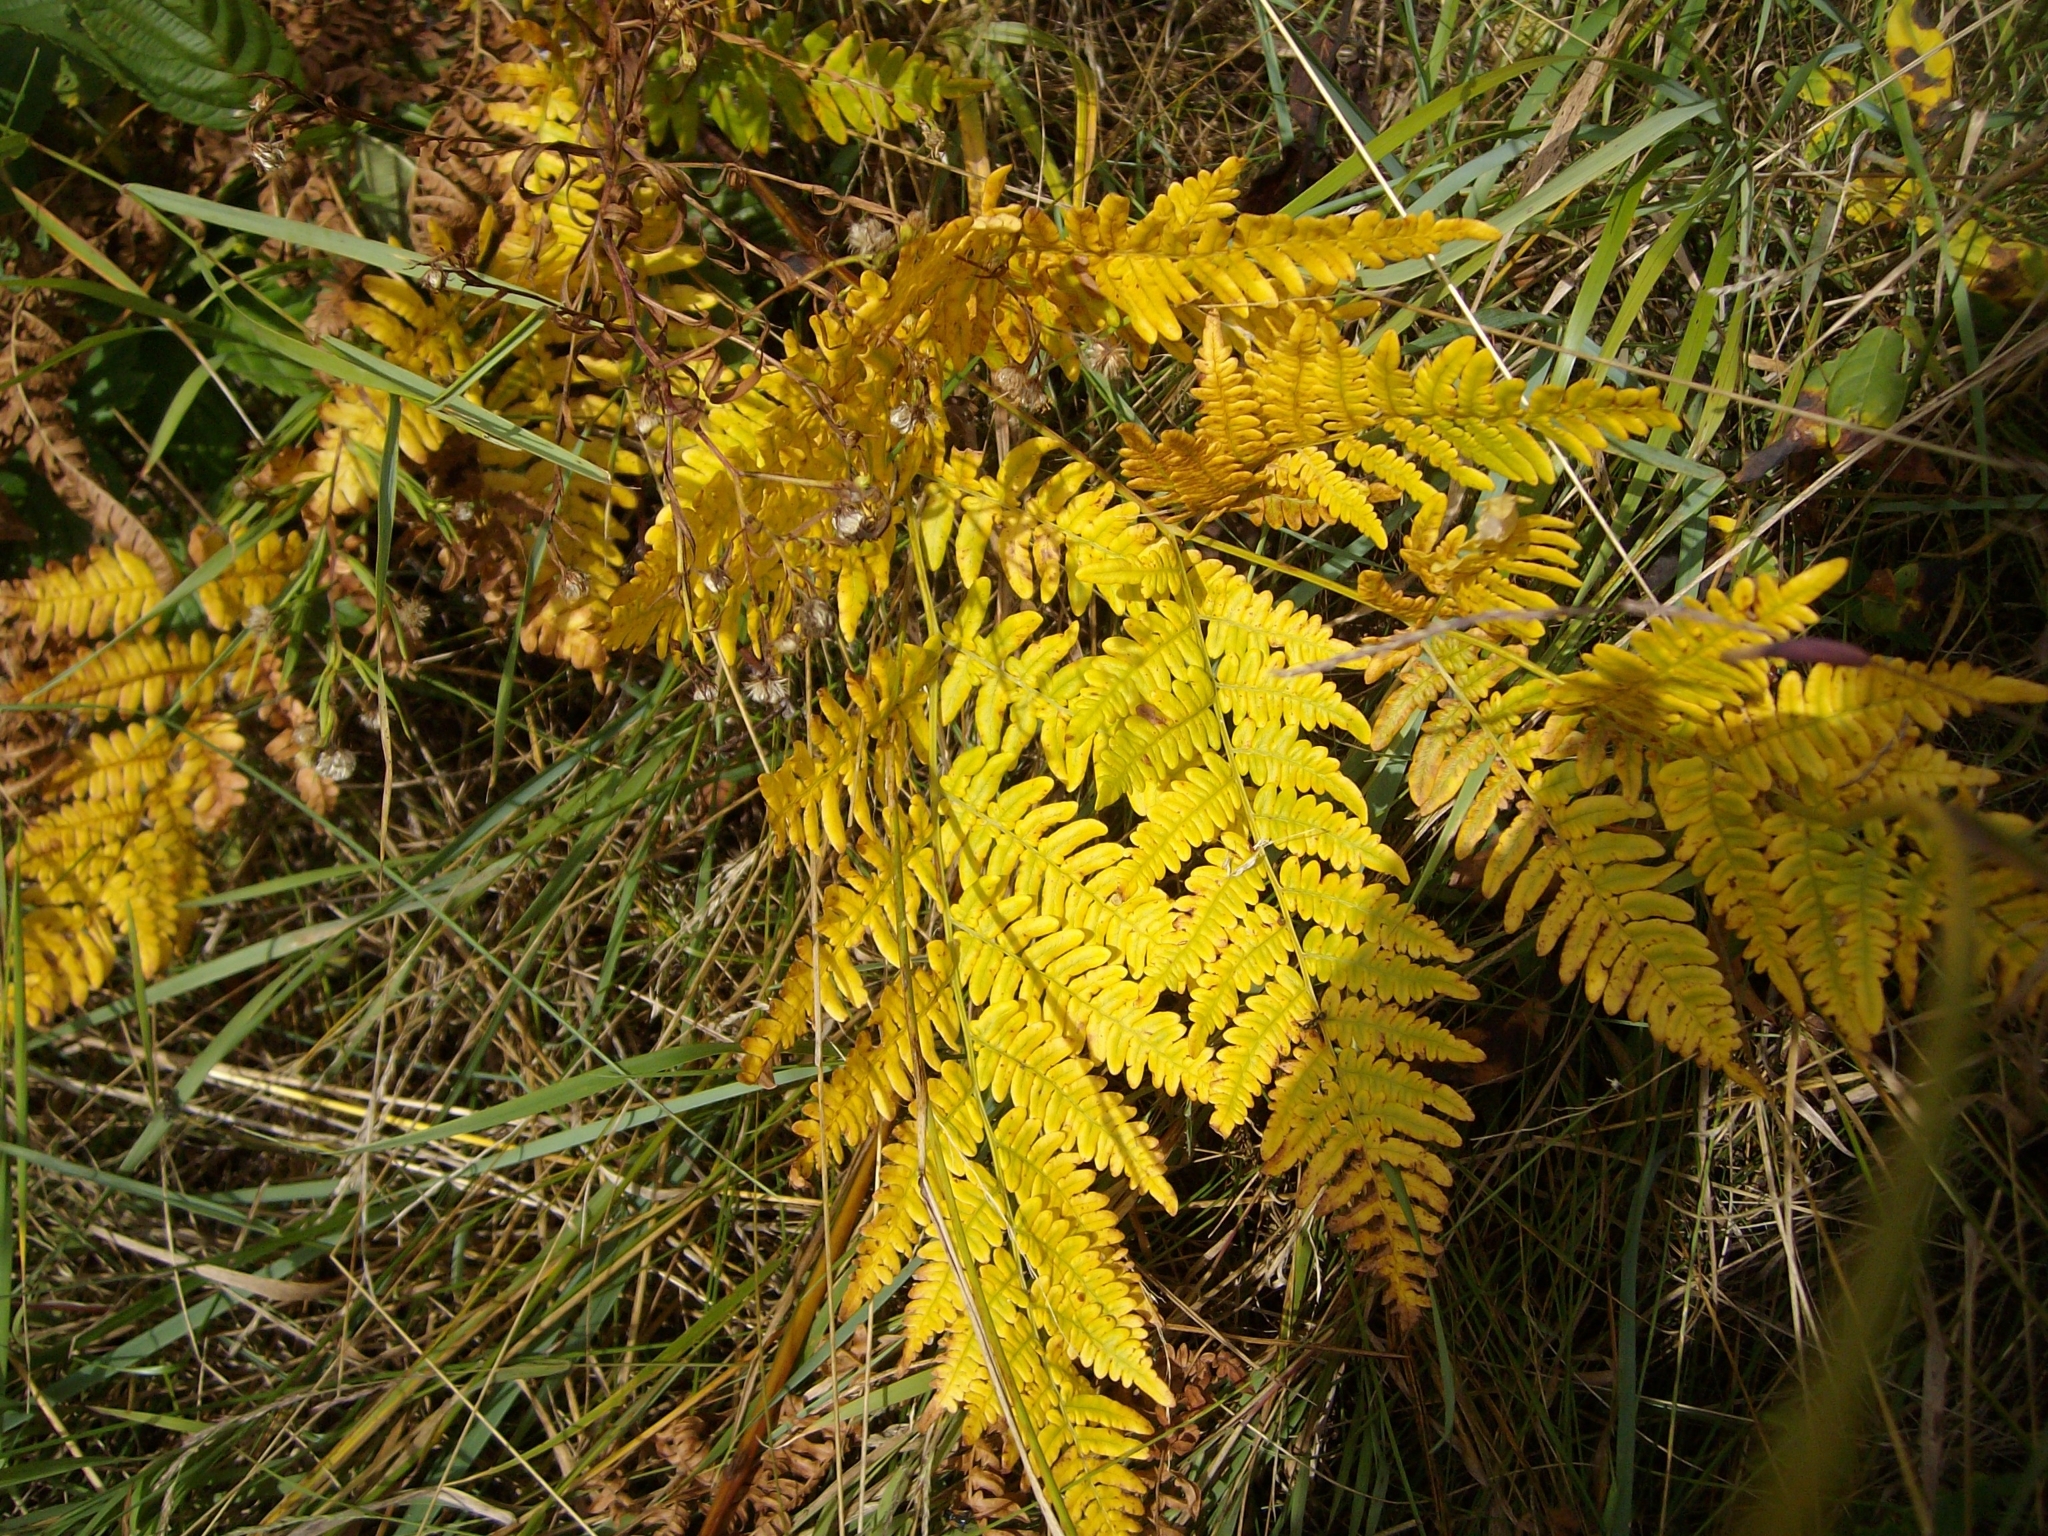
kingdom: Plantae
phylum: Tracheophyta
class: Polypodiopsida
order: Polypodiales
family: Dennstaedtiaceae
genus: Pteridium
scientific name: Pteridium aquilinum
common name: Bracken
